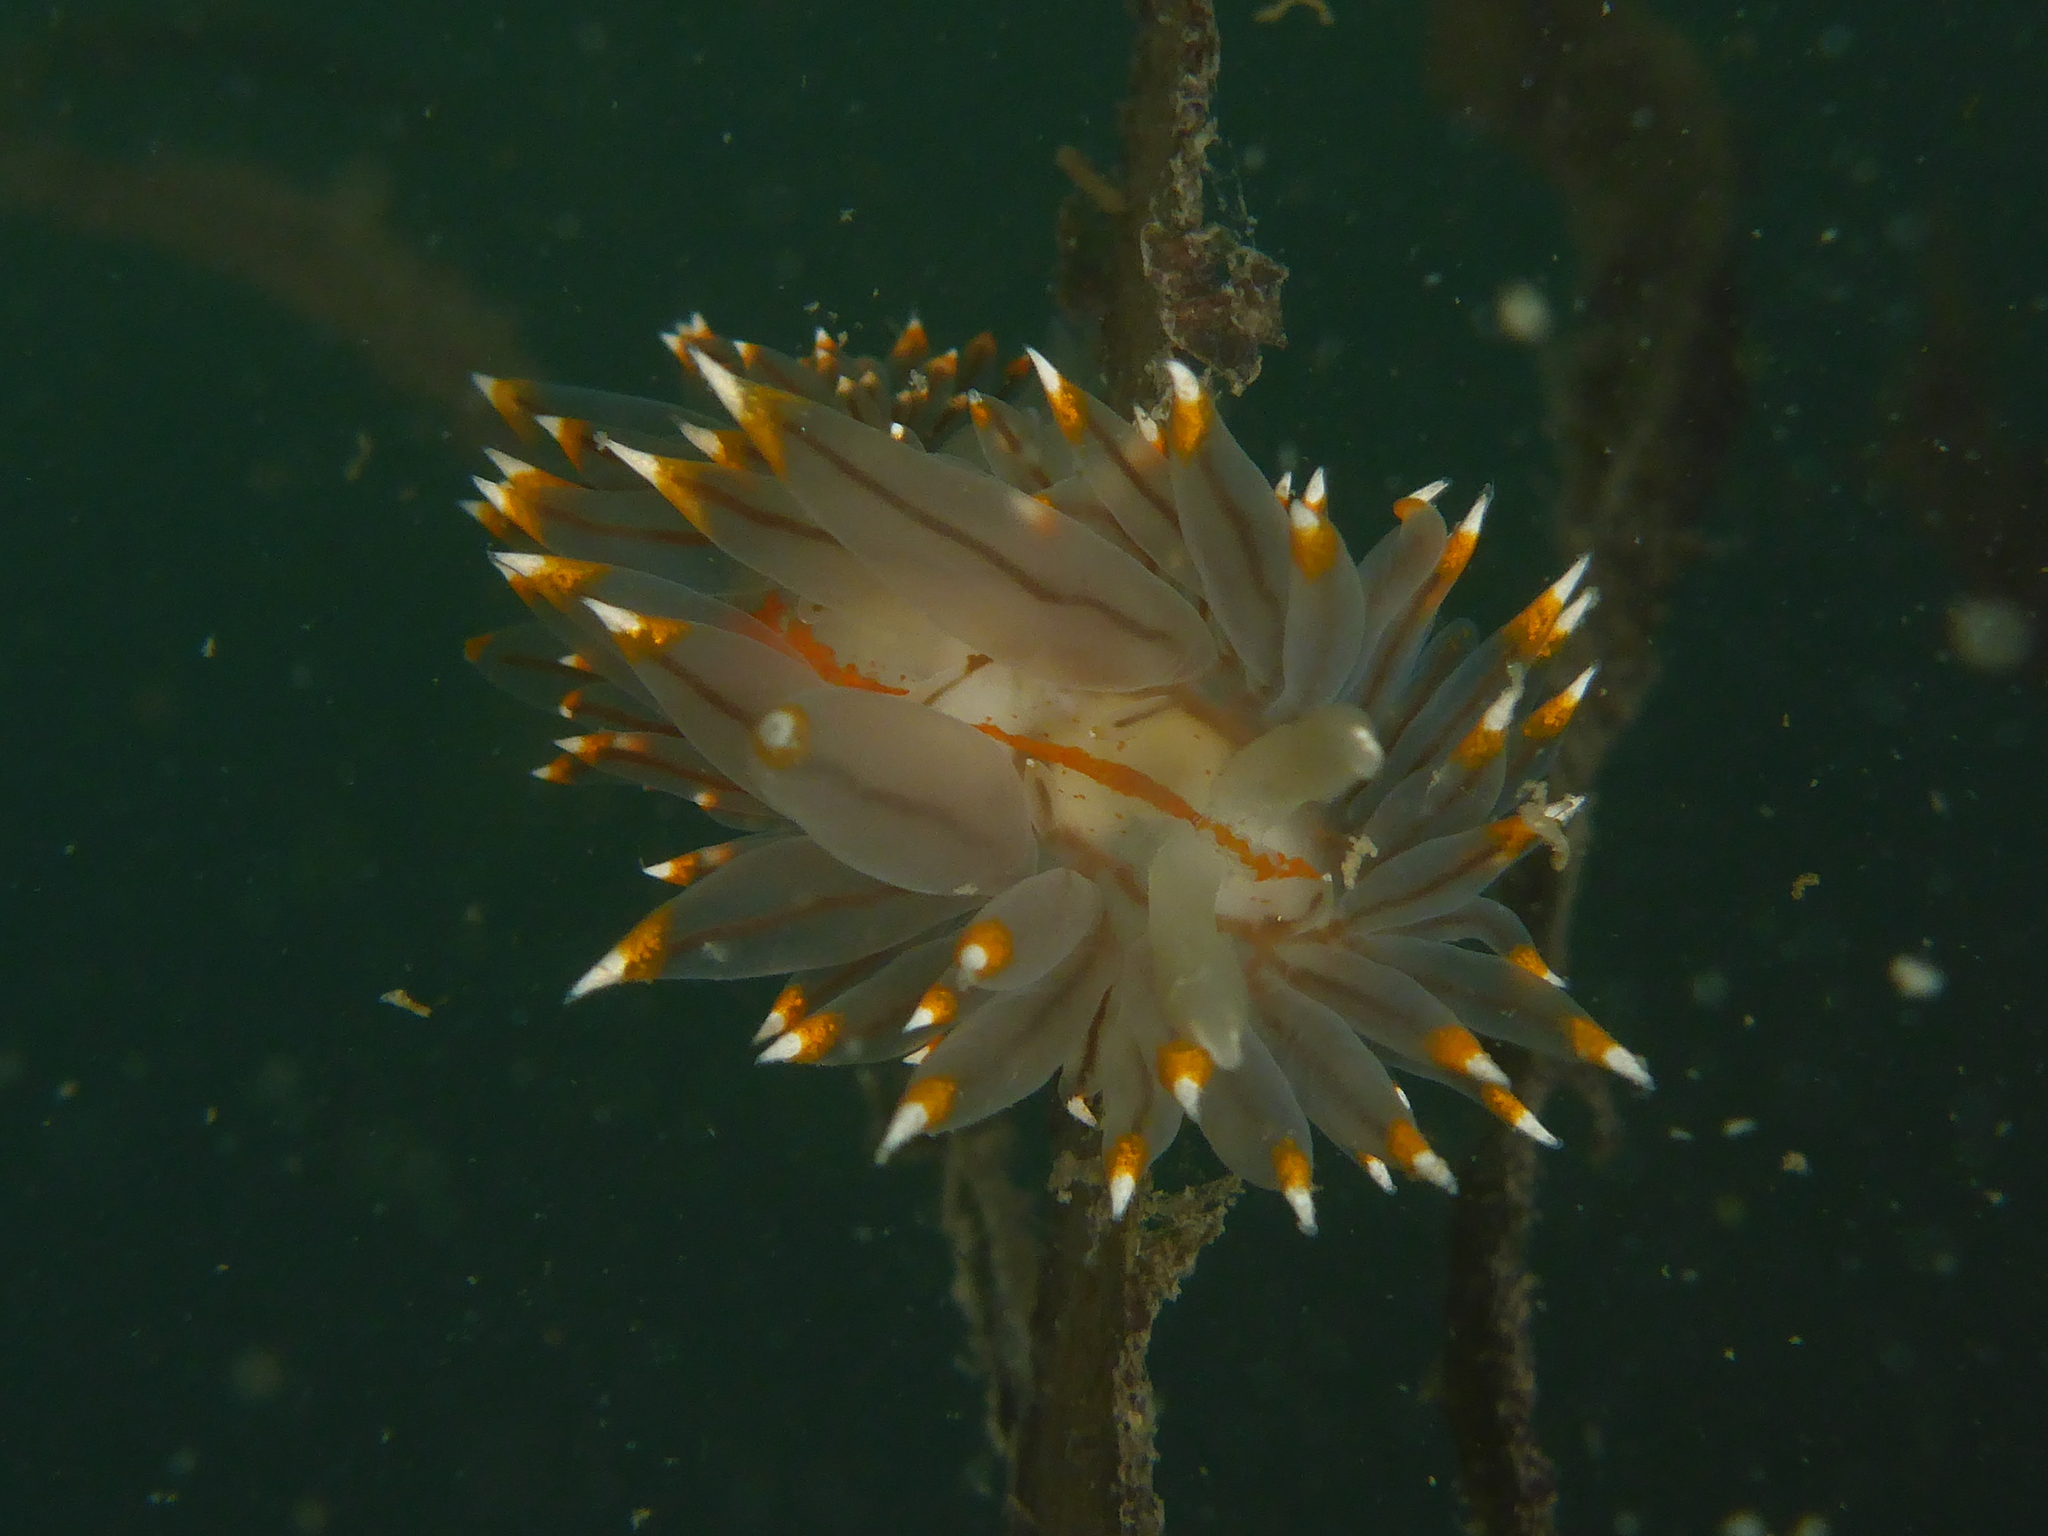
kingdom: Animalia
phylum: Mollusca
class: Gastropoda
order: Nudibranchia
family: Janolidae
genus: Antiopella
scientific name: Antiopella fusca
